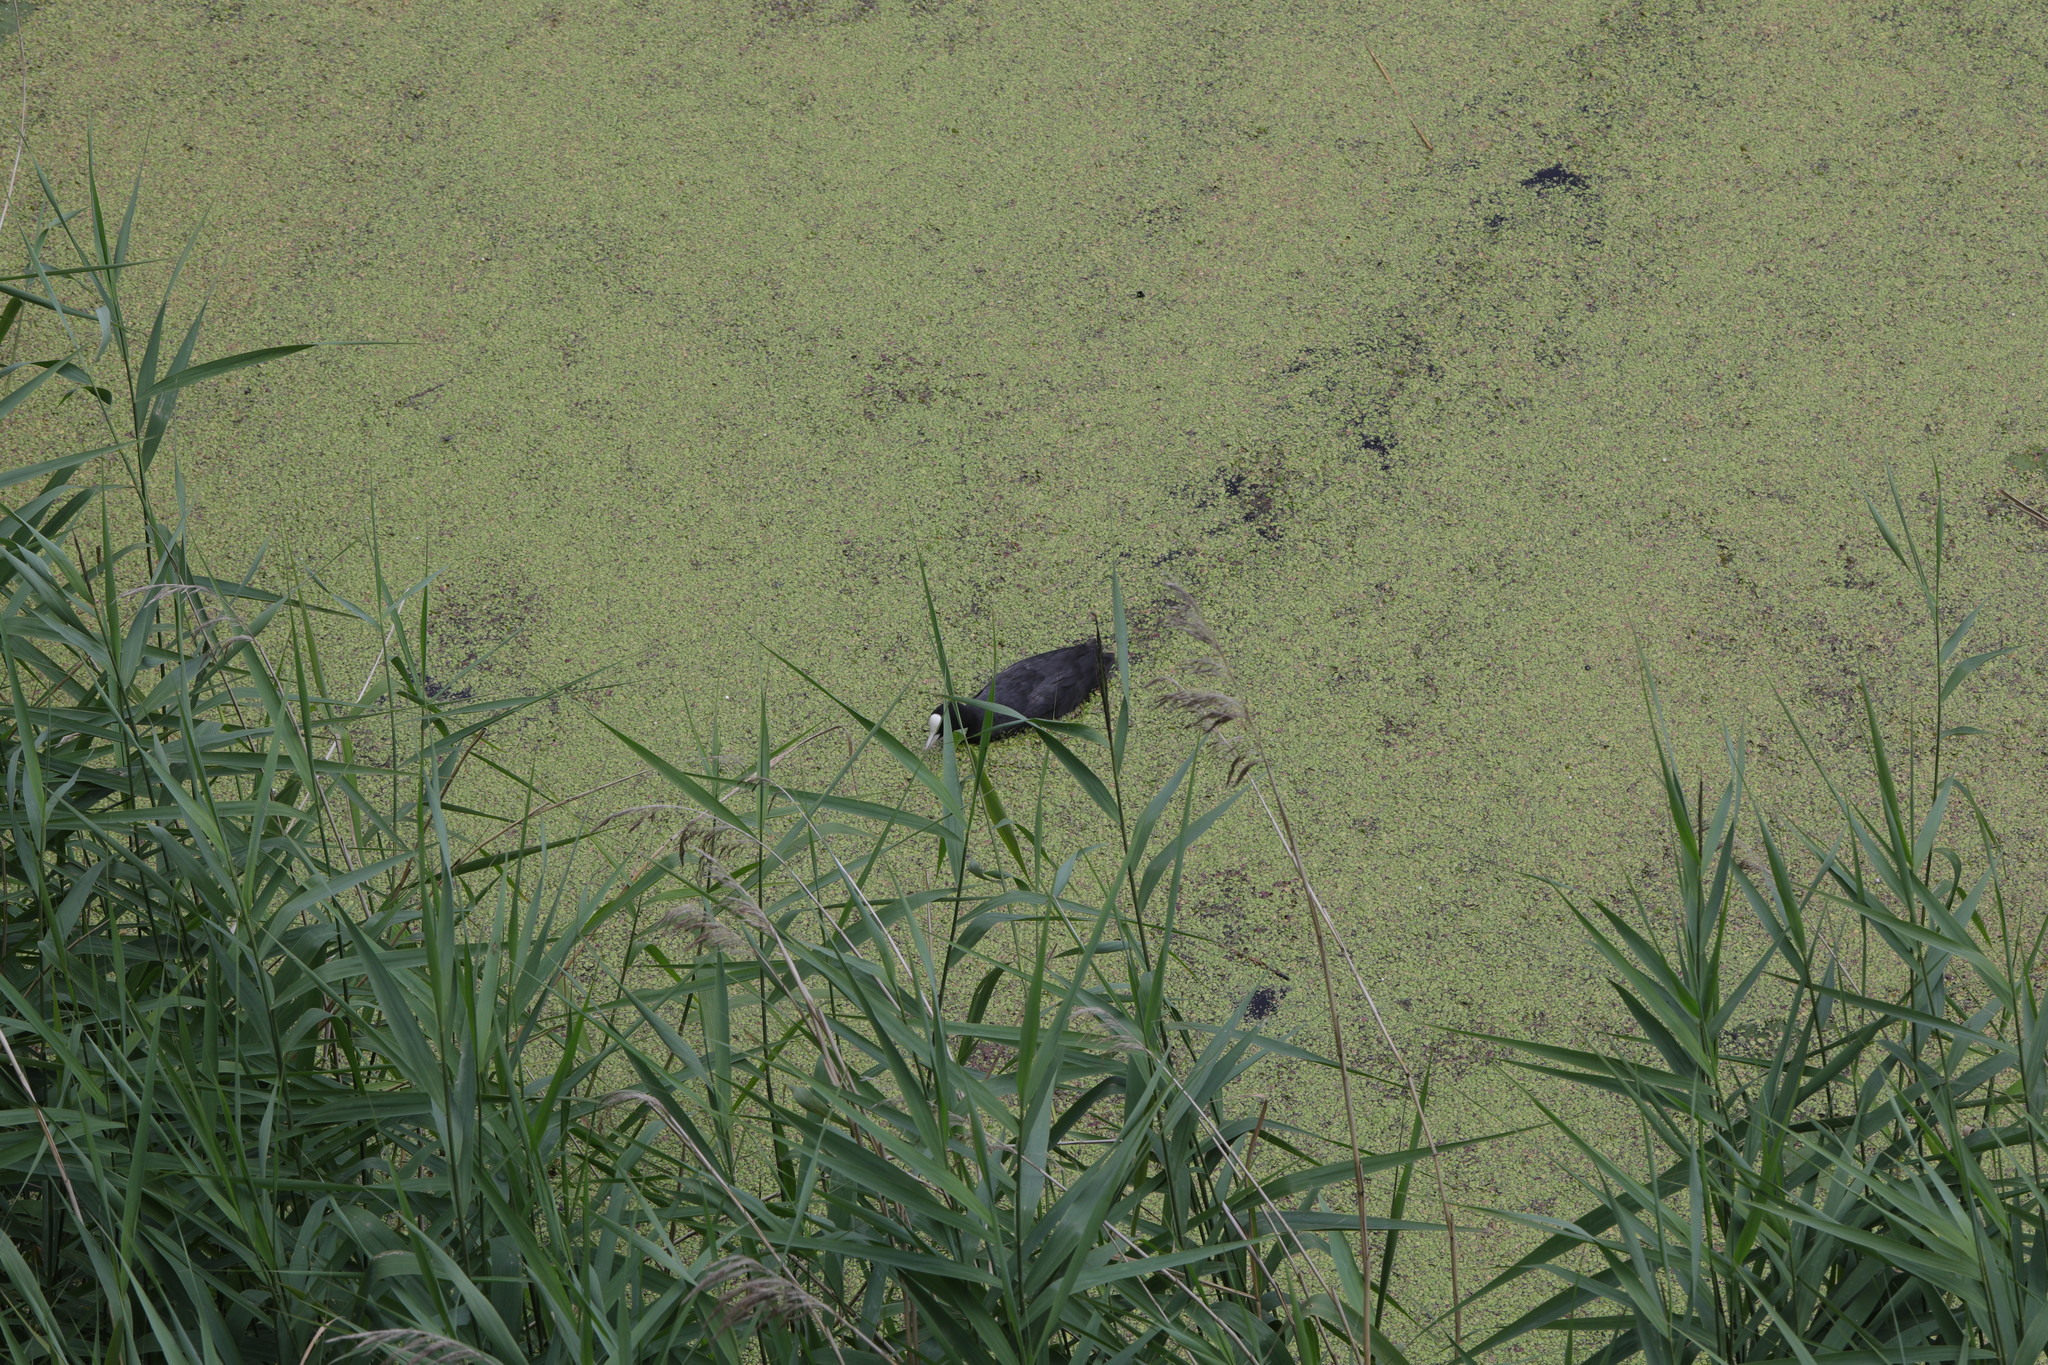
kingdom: Animalia
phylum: Chordata
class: Aves
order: Gruiformes
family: Rallidae
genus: Fulica
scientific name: Fulica atra
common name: Eurasian coot
